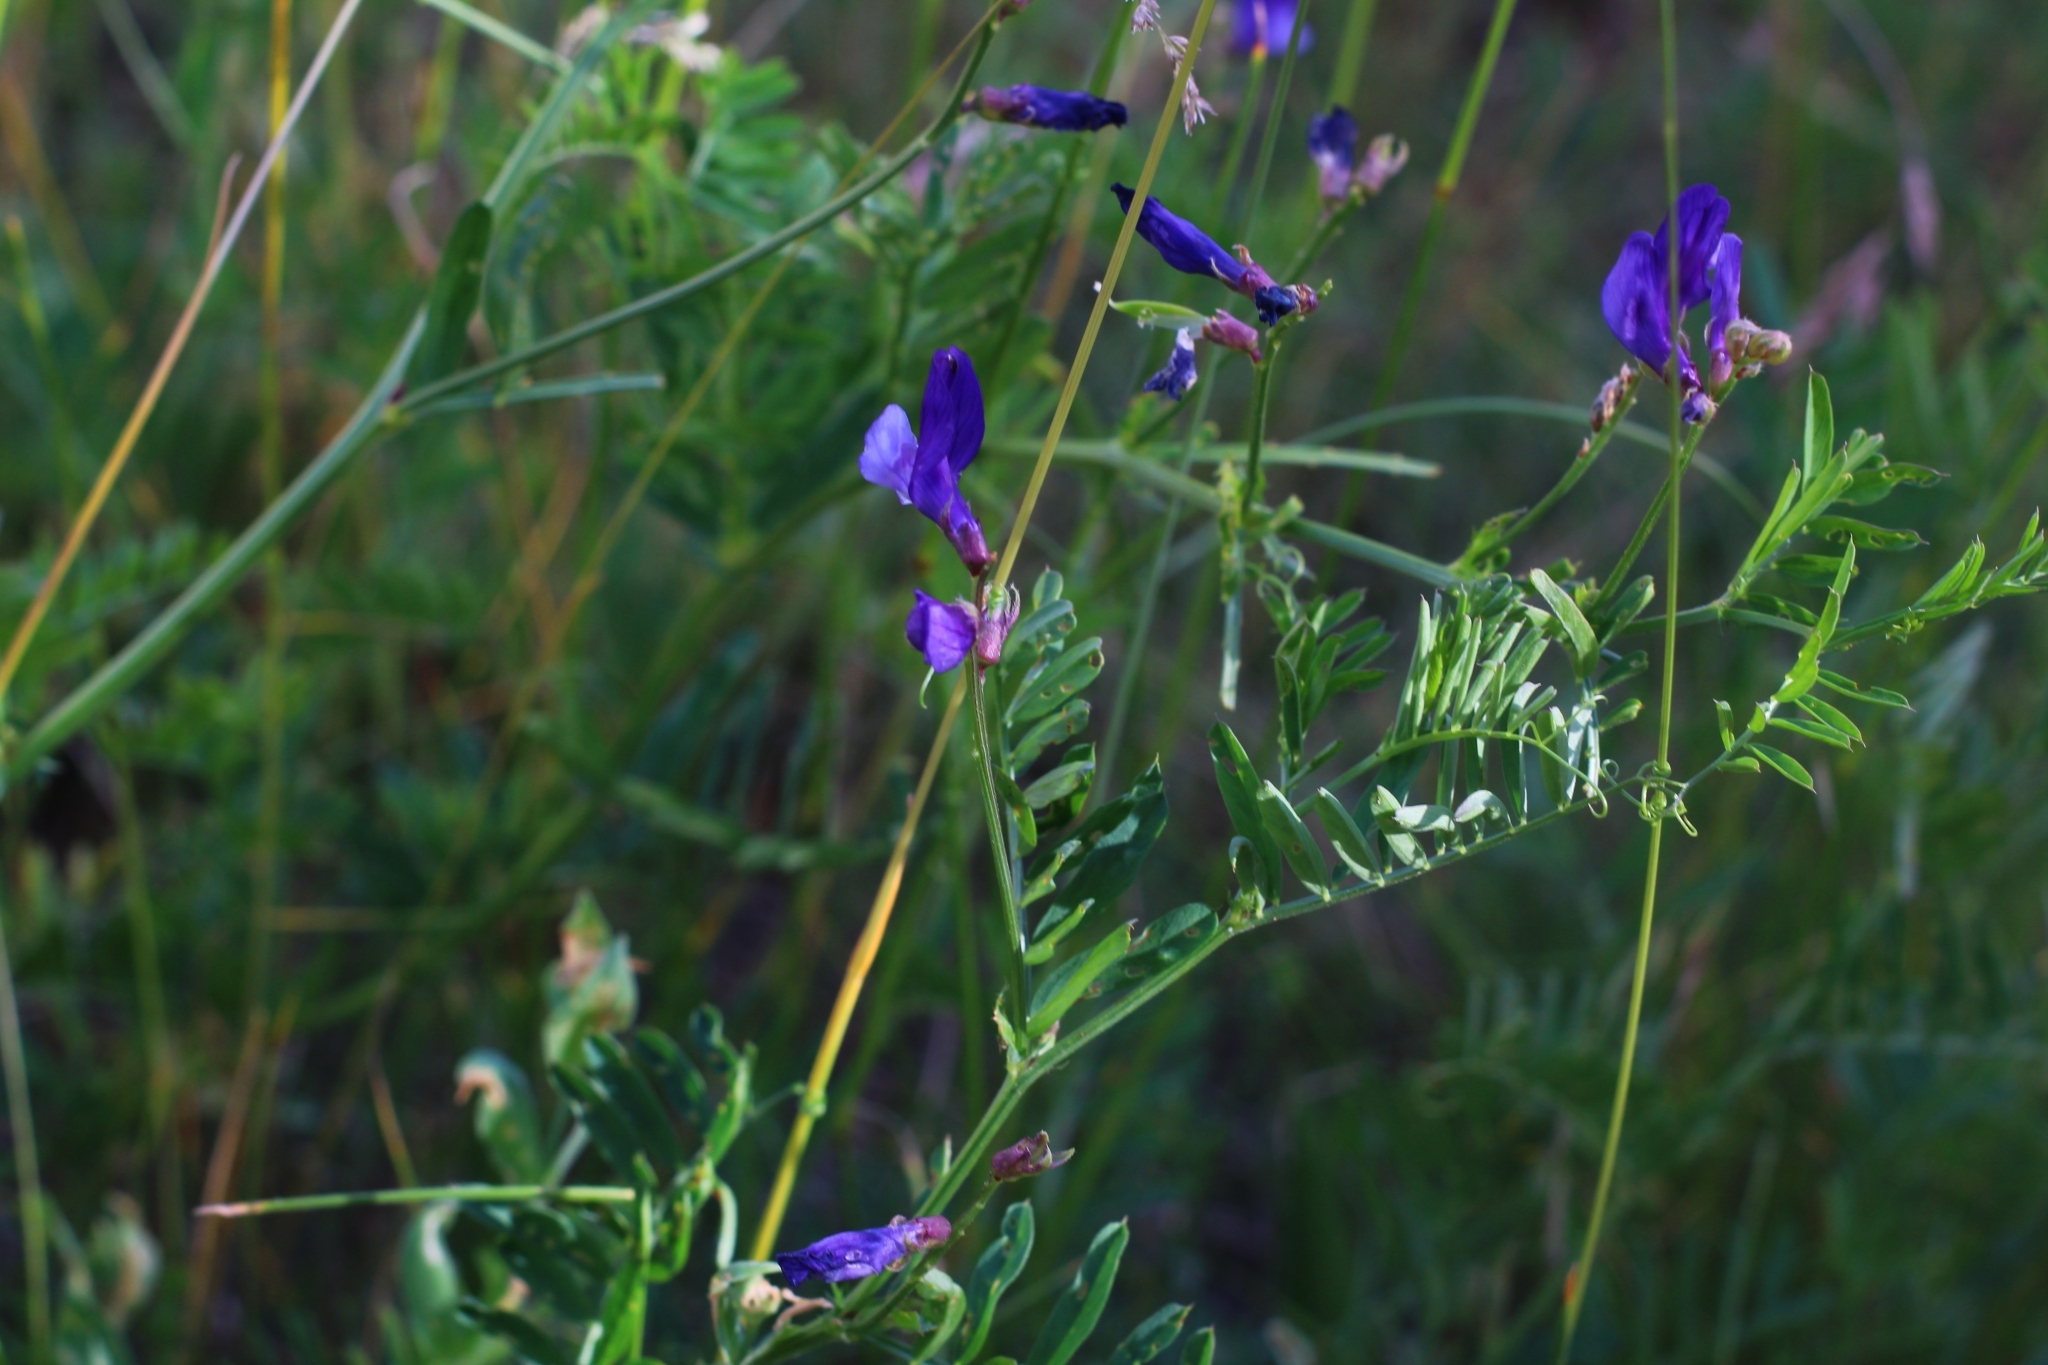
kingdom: Plantae
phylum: Tracheophyta
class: Magnoliopsida
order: Fabales
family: Fabaceae
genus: Vicia
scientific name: Vicia onobrychioides
